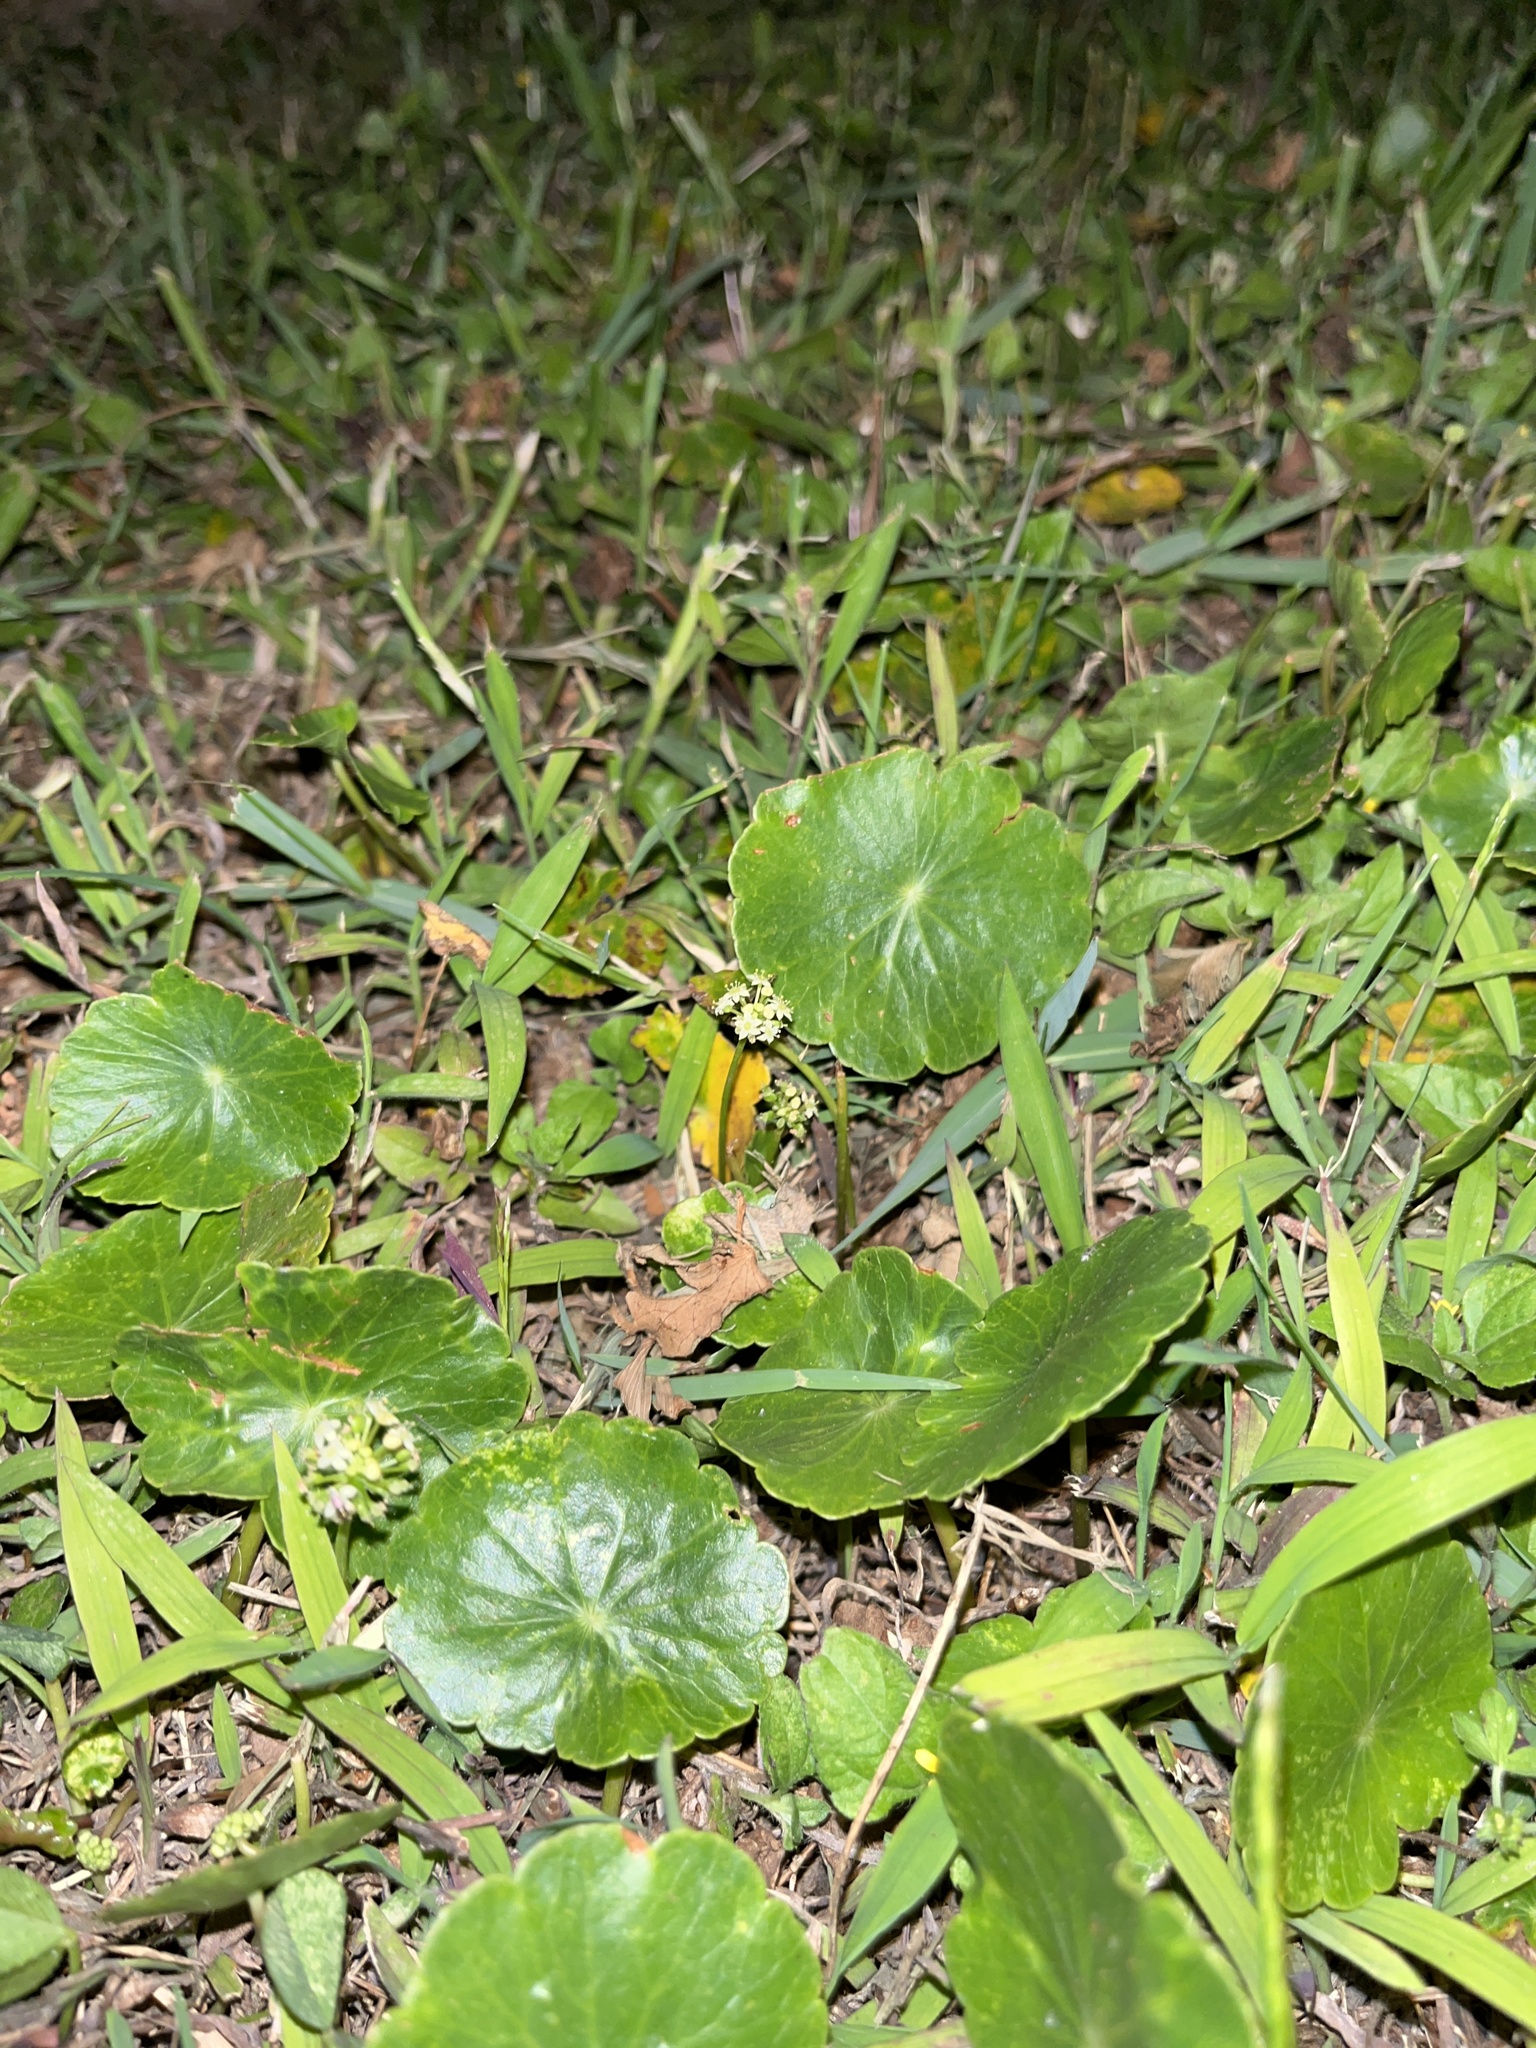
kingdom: Plantae
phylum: Tracheophyta
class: Magnoliopsida
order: Apiales
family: Araliaceae
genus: Hydrocotyle
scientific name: Hydrocotyle umbellata
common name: Water pennywort
